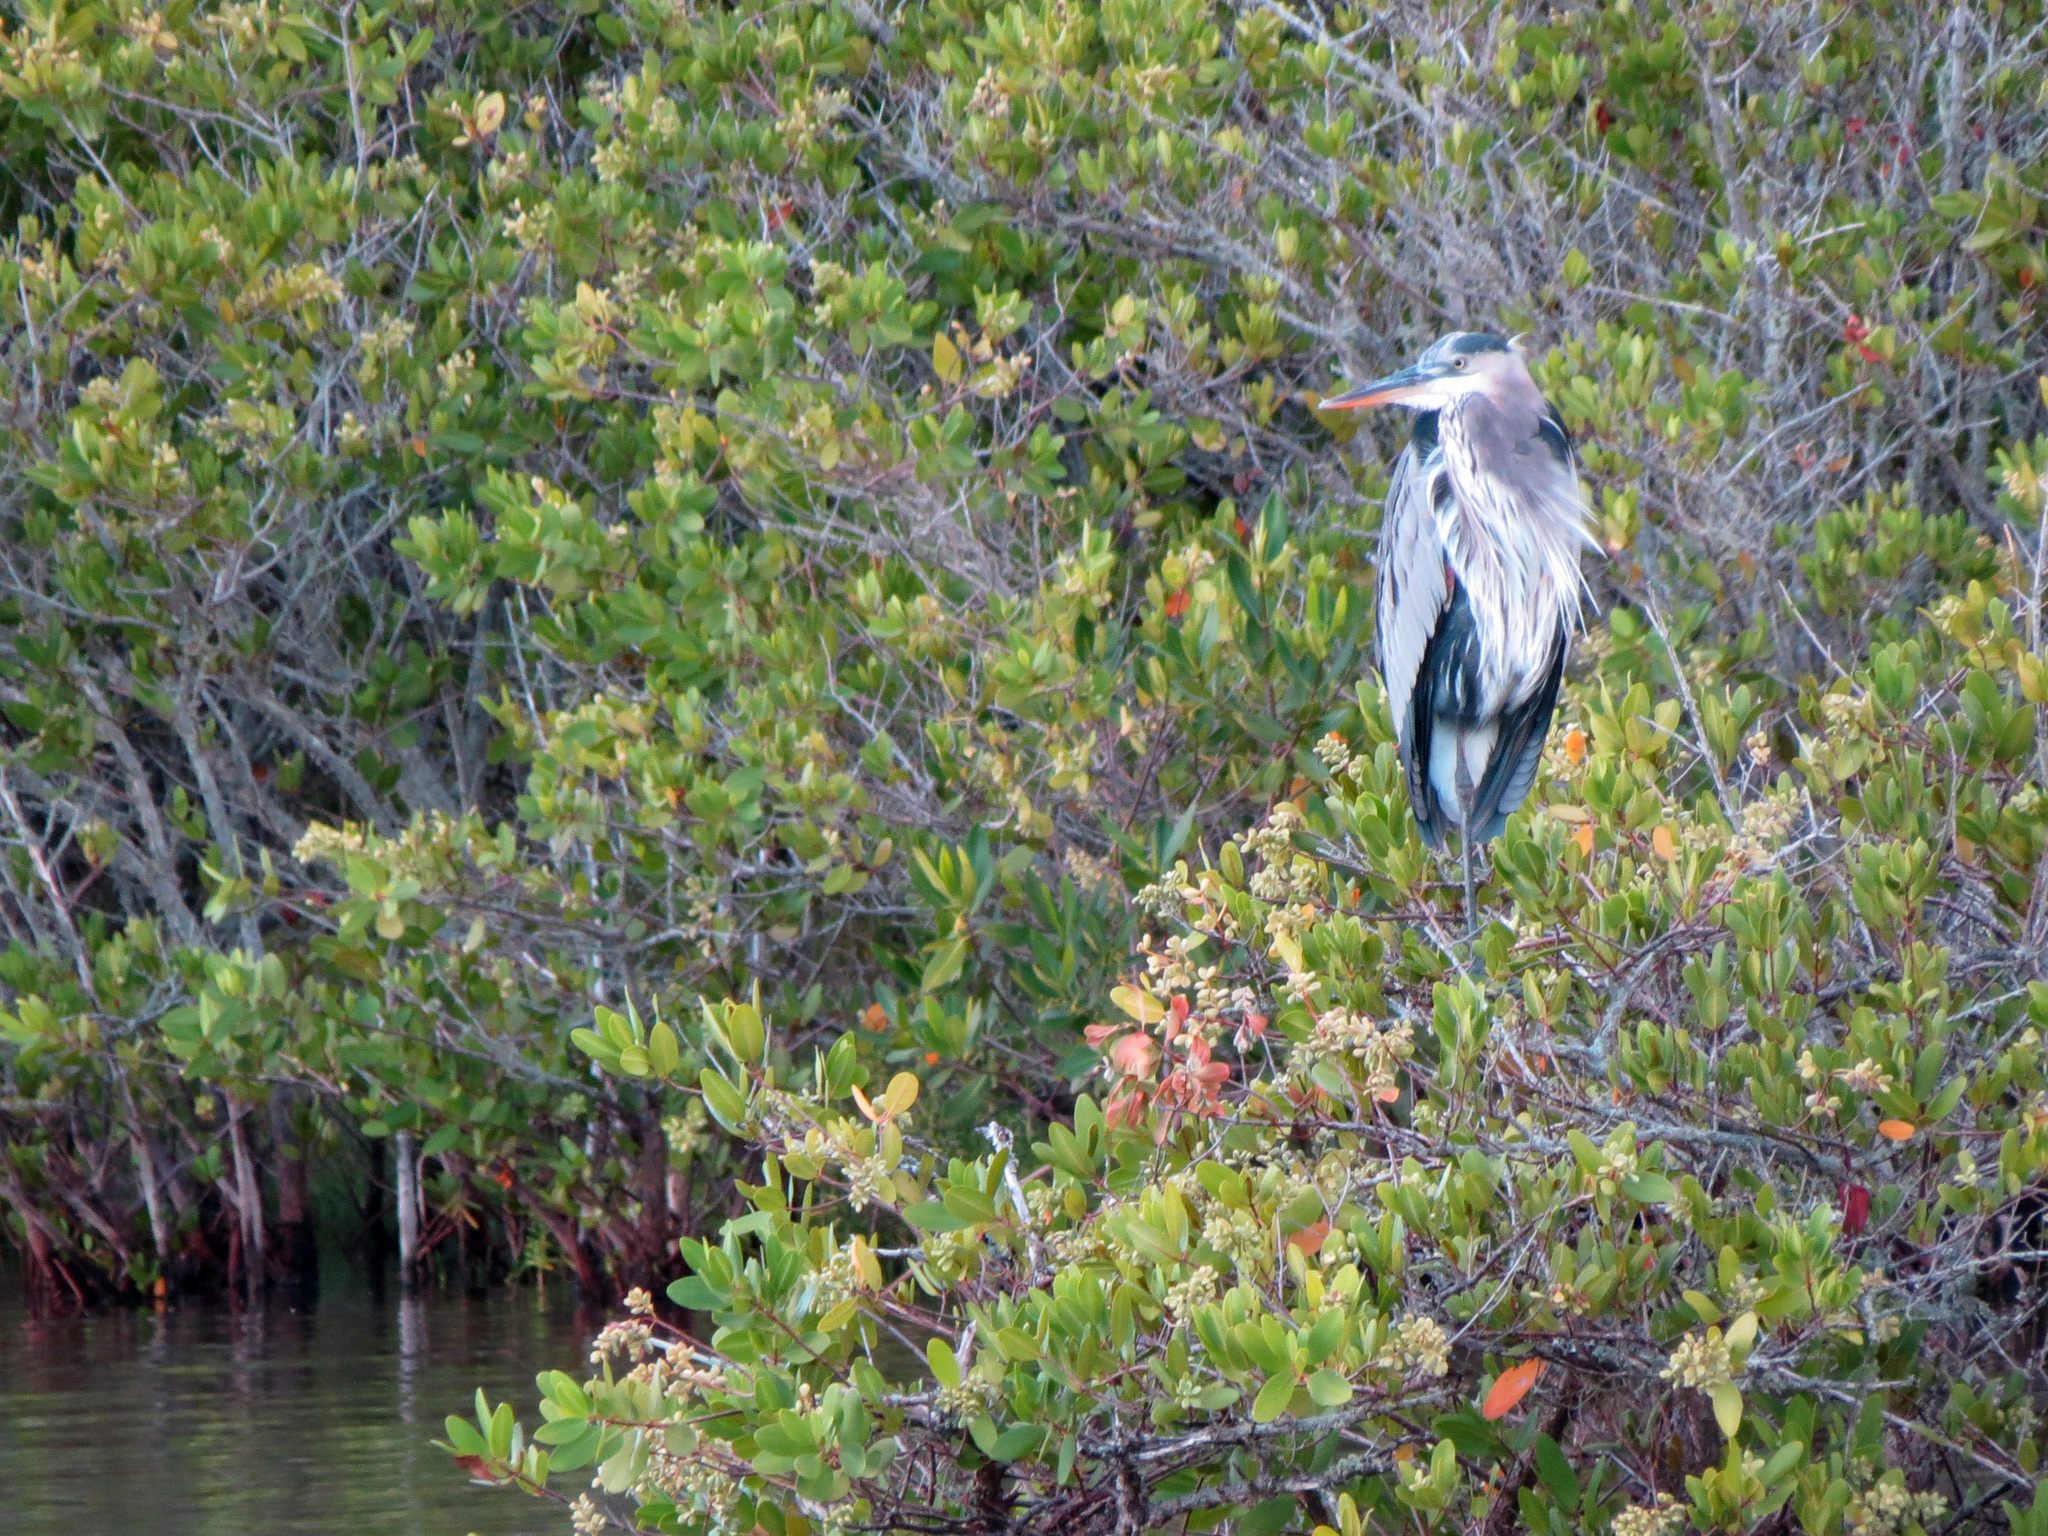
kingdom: Animalia
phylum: Chordata
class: Aves
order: Pelecaniformes
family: Ardeidae
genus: Ardea
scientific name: Ardea herodias
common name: Great blue heron
